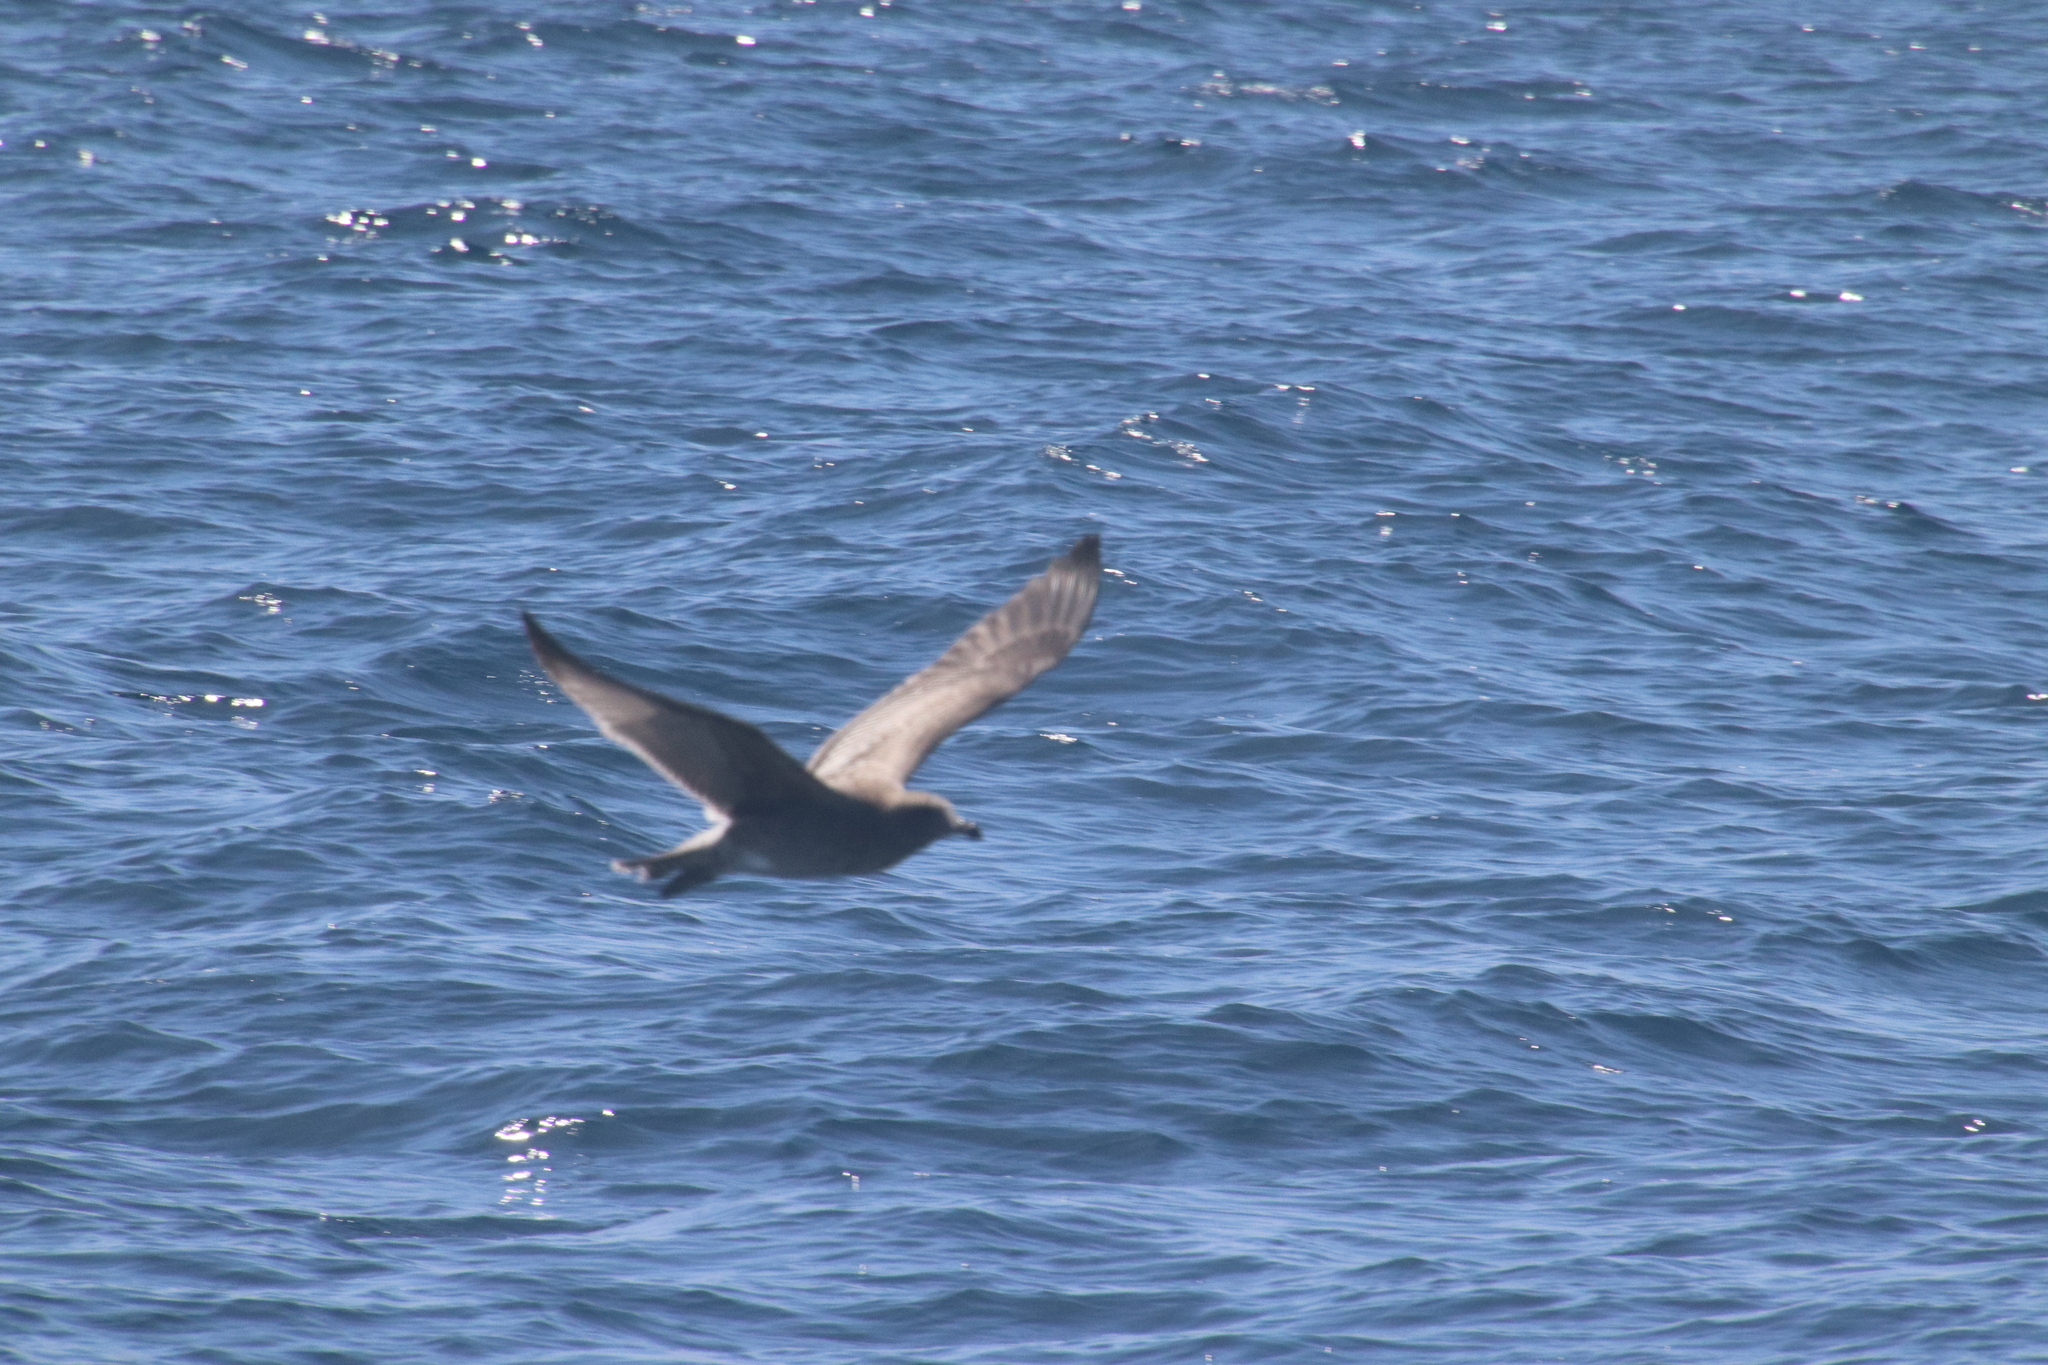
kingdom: Animalia
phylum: Chordata
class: Aves
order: Charadriiformes
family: Laridae
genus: Larus
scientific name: Larus occidentalis
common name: Western gull
